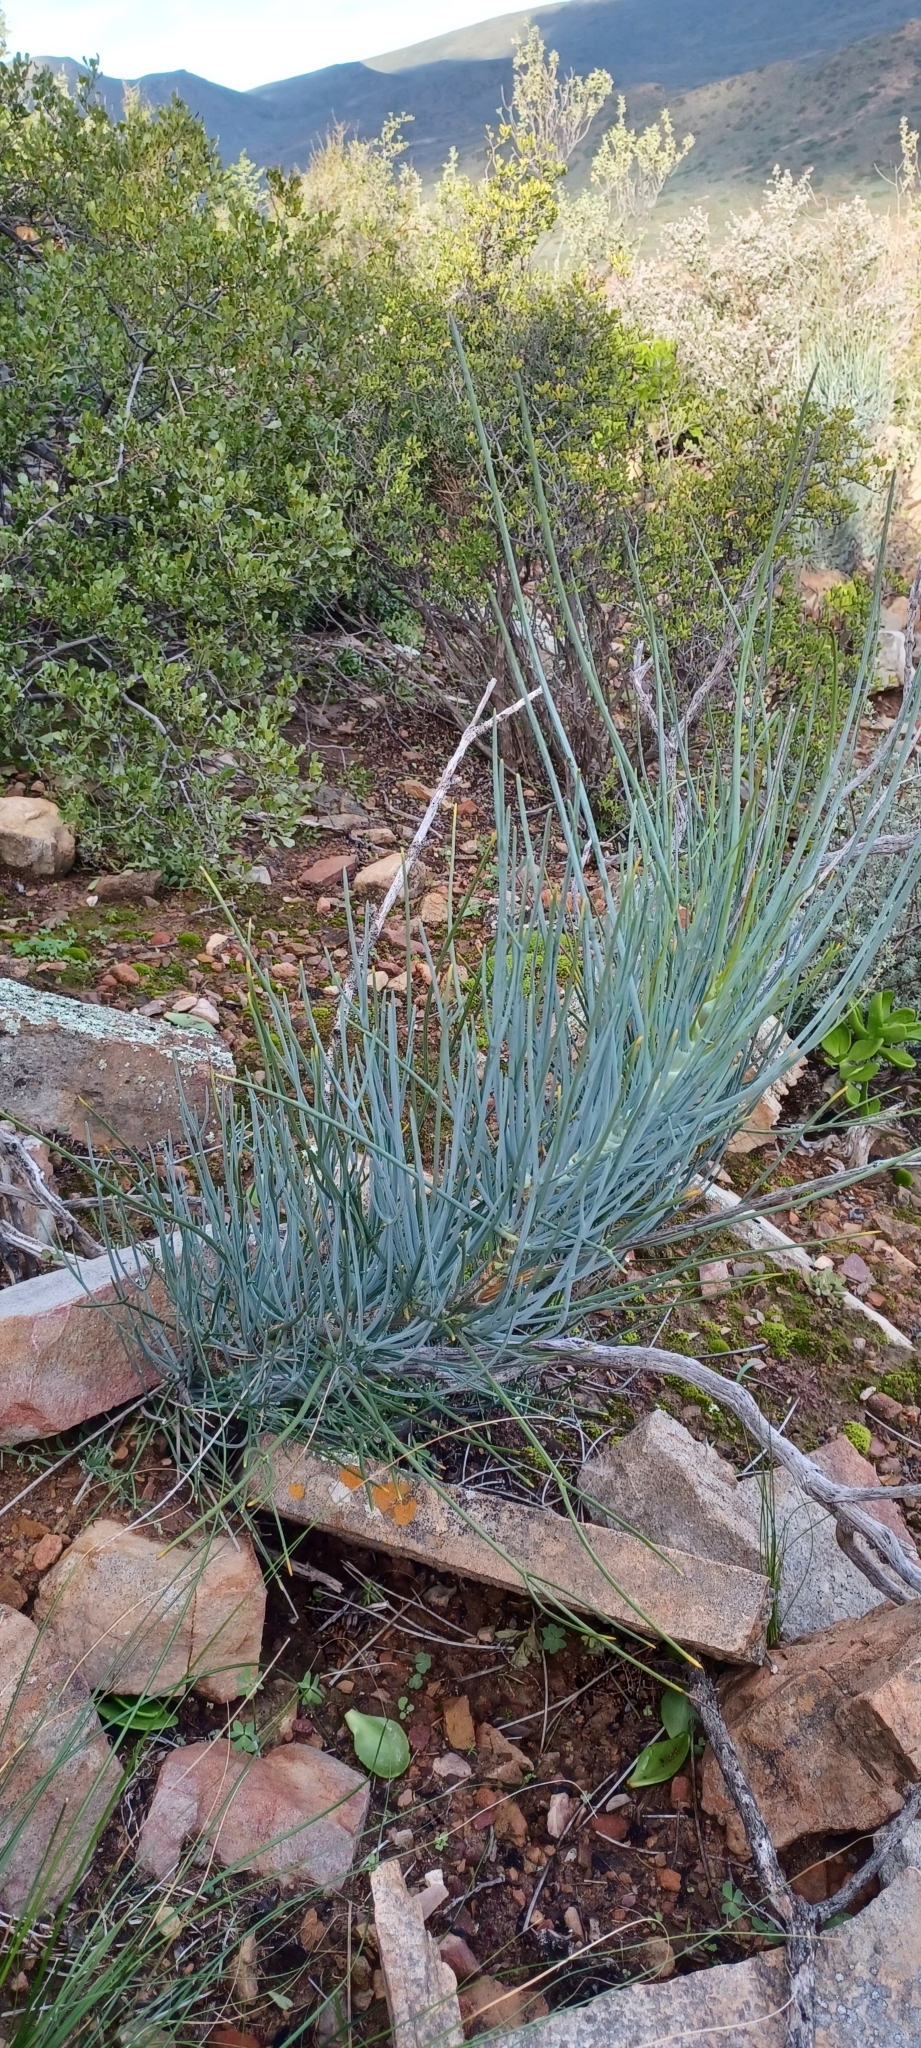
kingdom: Plantae
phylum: Tracheophyta
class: Magnoliopsida
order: Apiales
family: Apiaceae
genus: Anginon
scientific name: Anginon swellendamense
